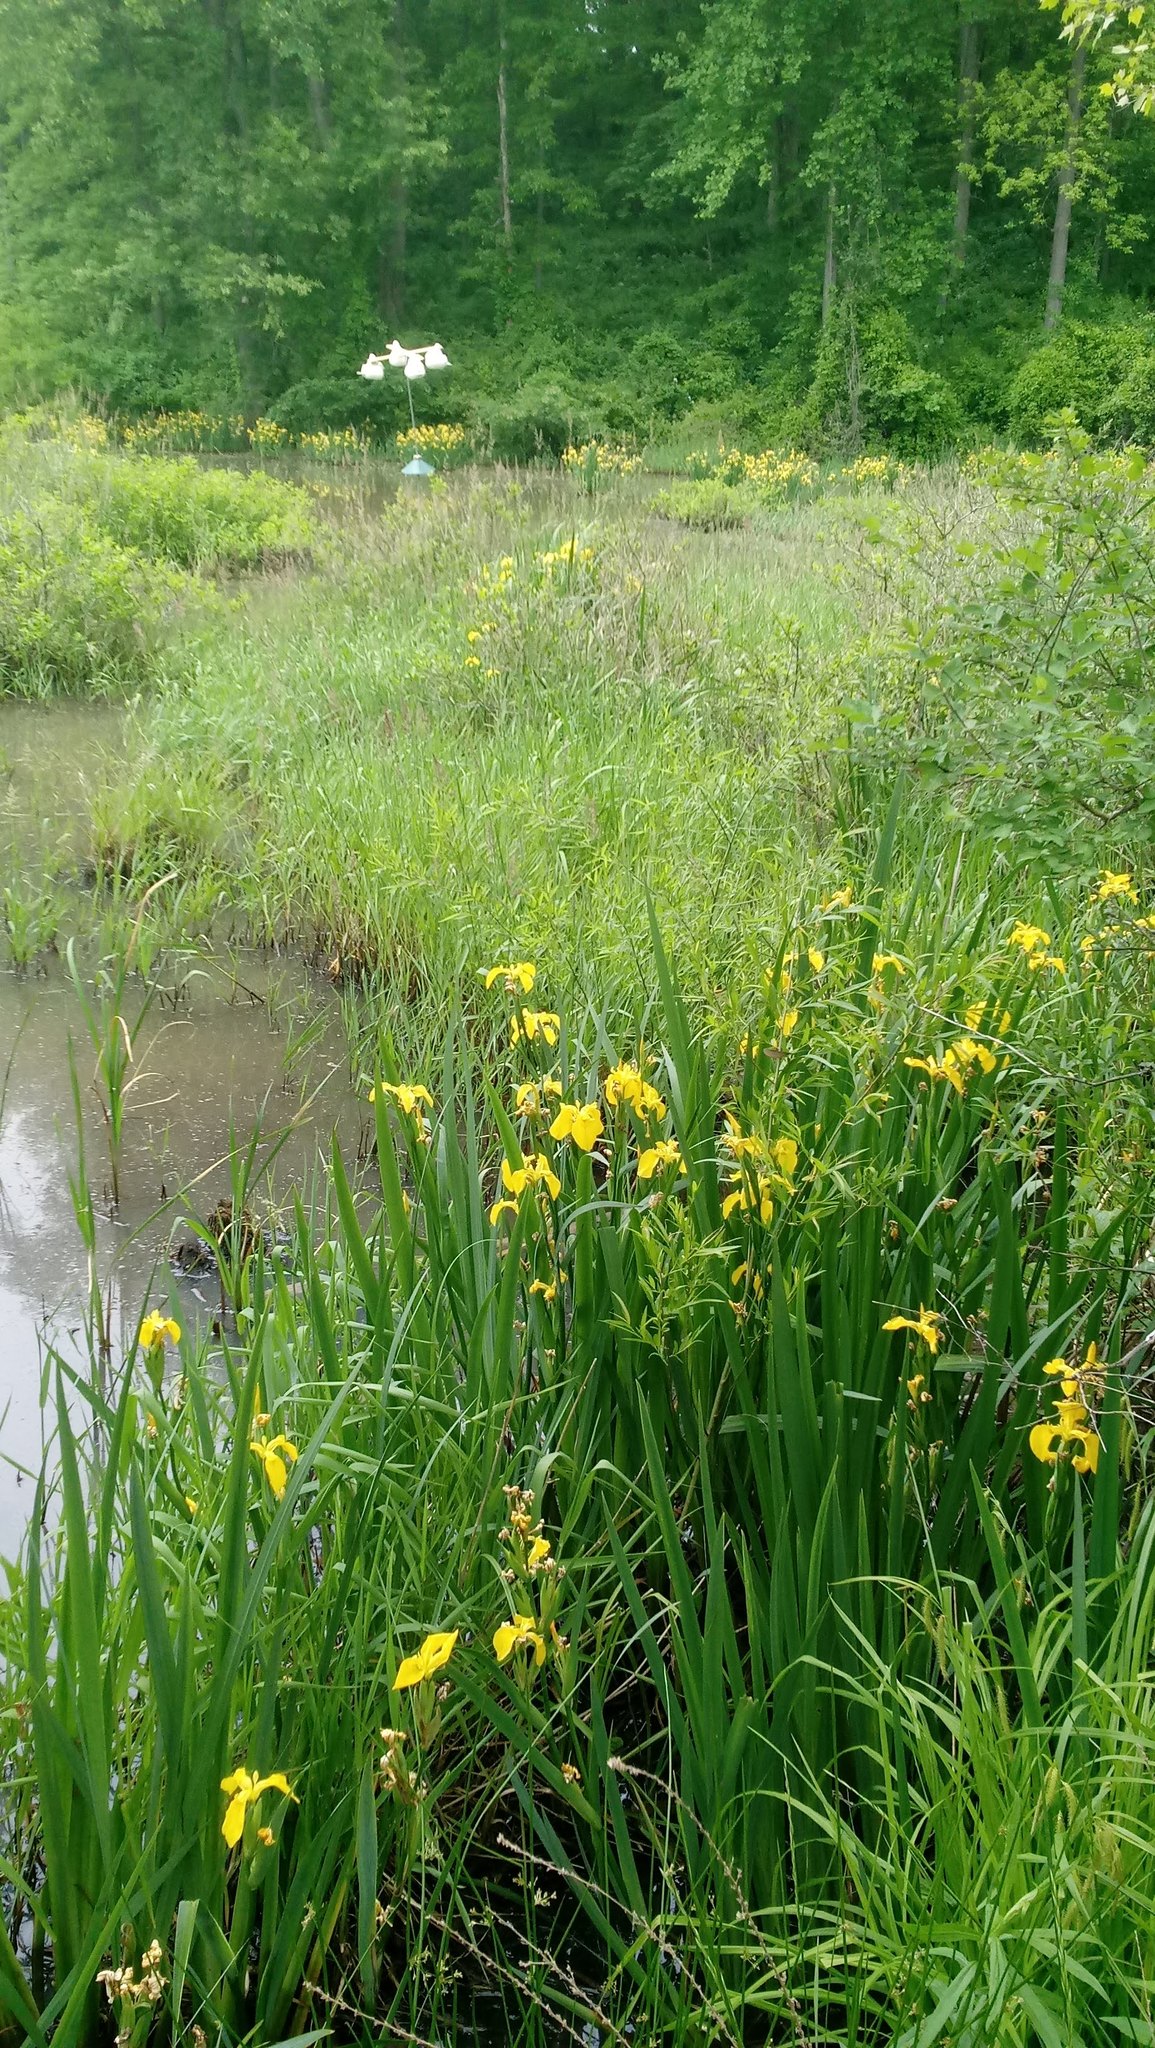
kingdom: Plantae
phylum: Tracheophyta
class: Liliopsida
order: Asparagales
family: Iridaceae
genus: Iris
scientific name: Iris pseudacorus
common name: Yellow flag
